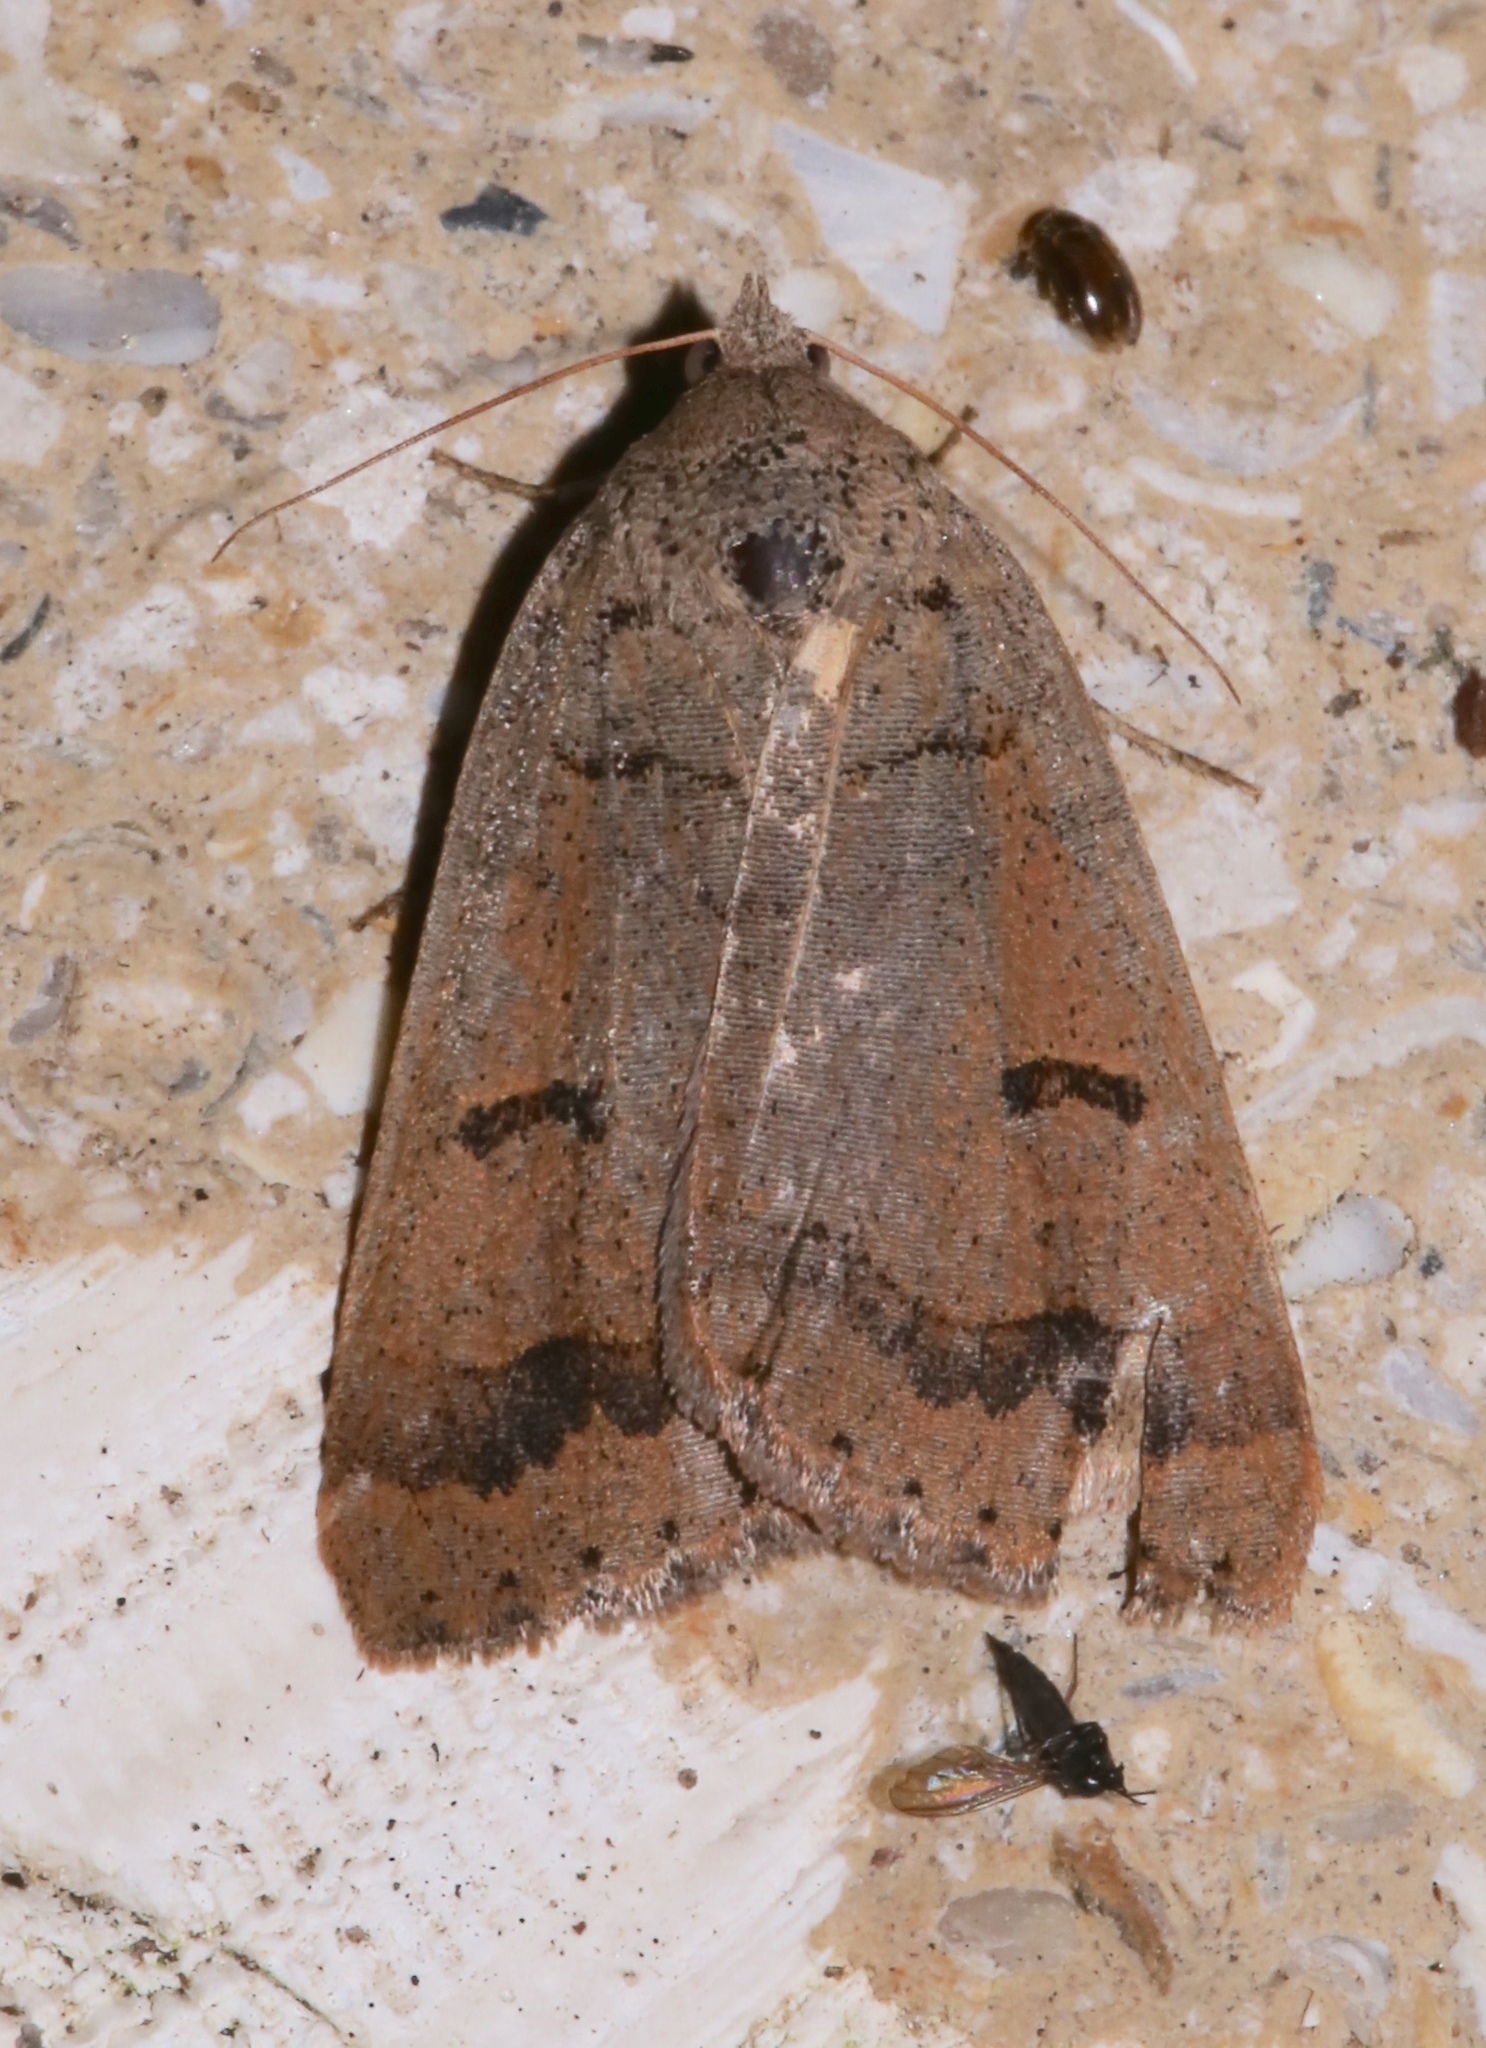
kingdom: Animalia
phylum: Arthropoda
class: Insecta
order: Lepidoptera
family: Erebidae
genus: Phoberia
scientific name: Phoberia atomaris
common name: Common oak moth
